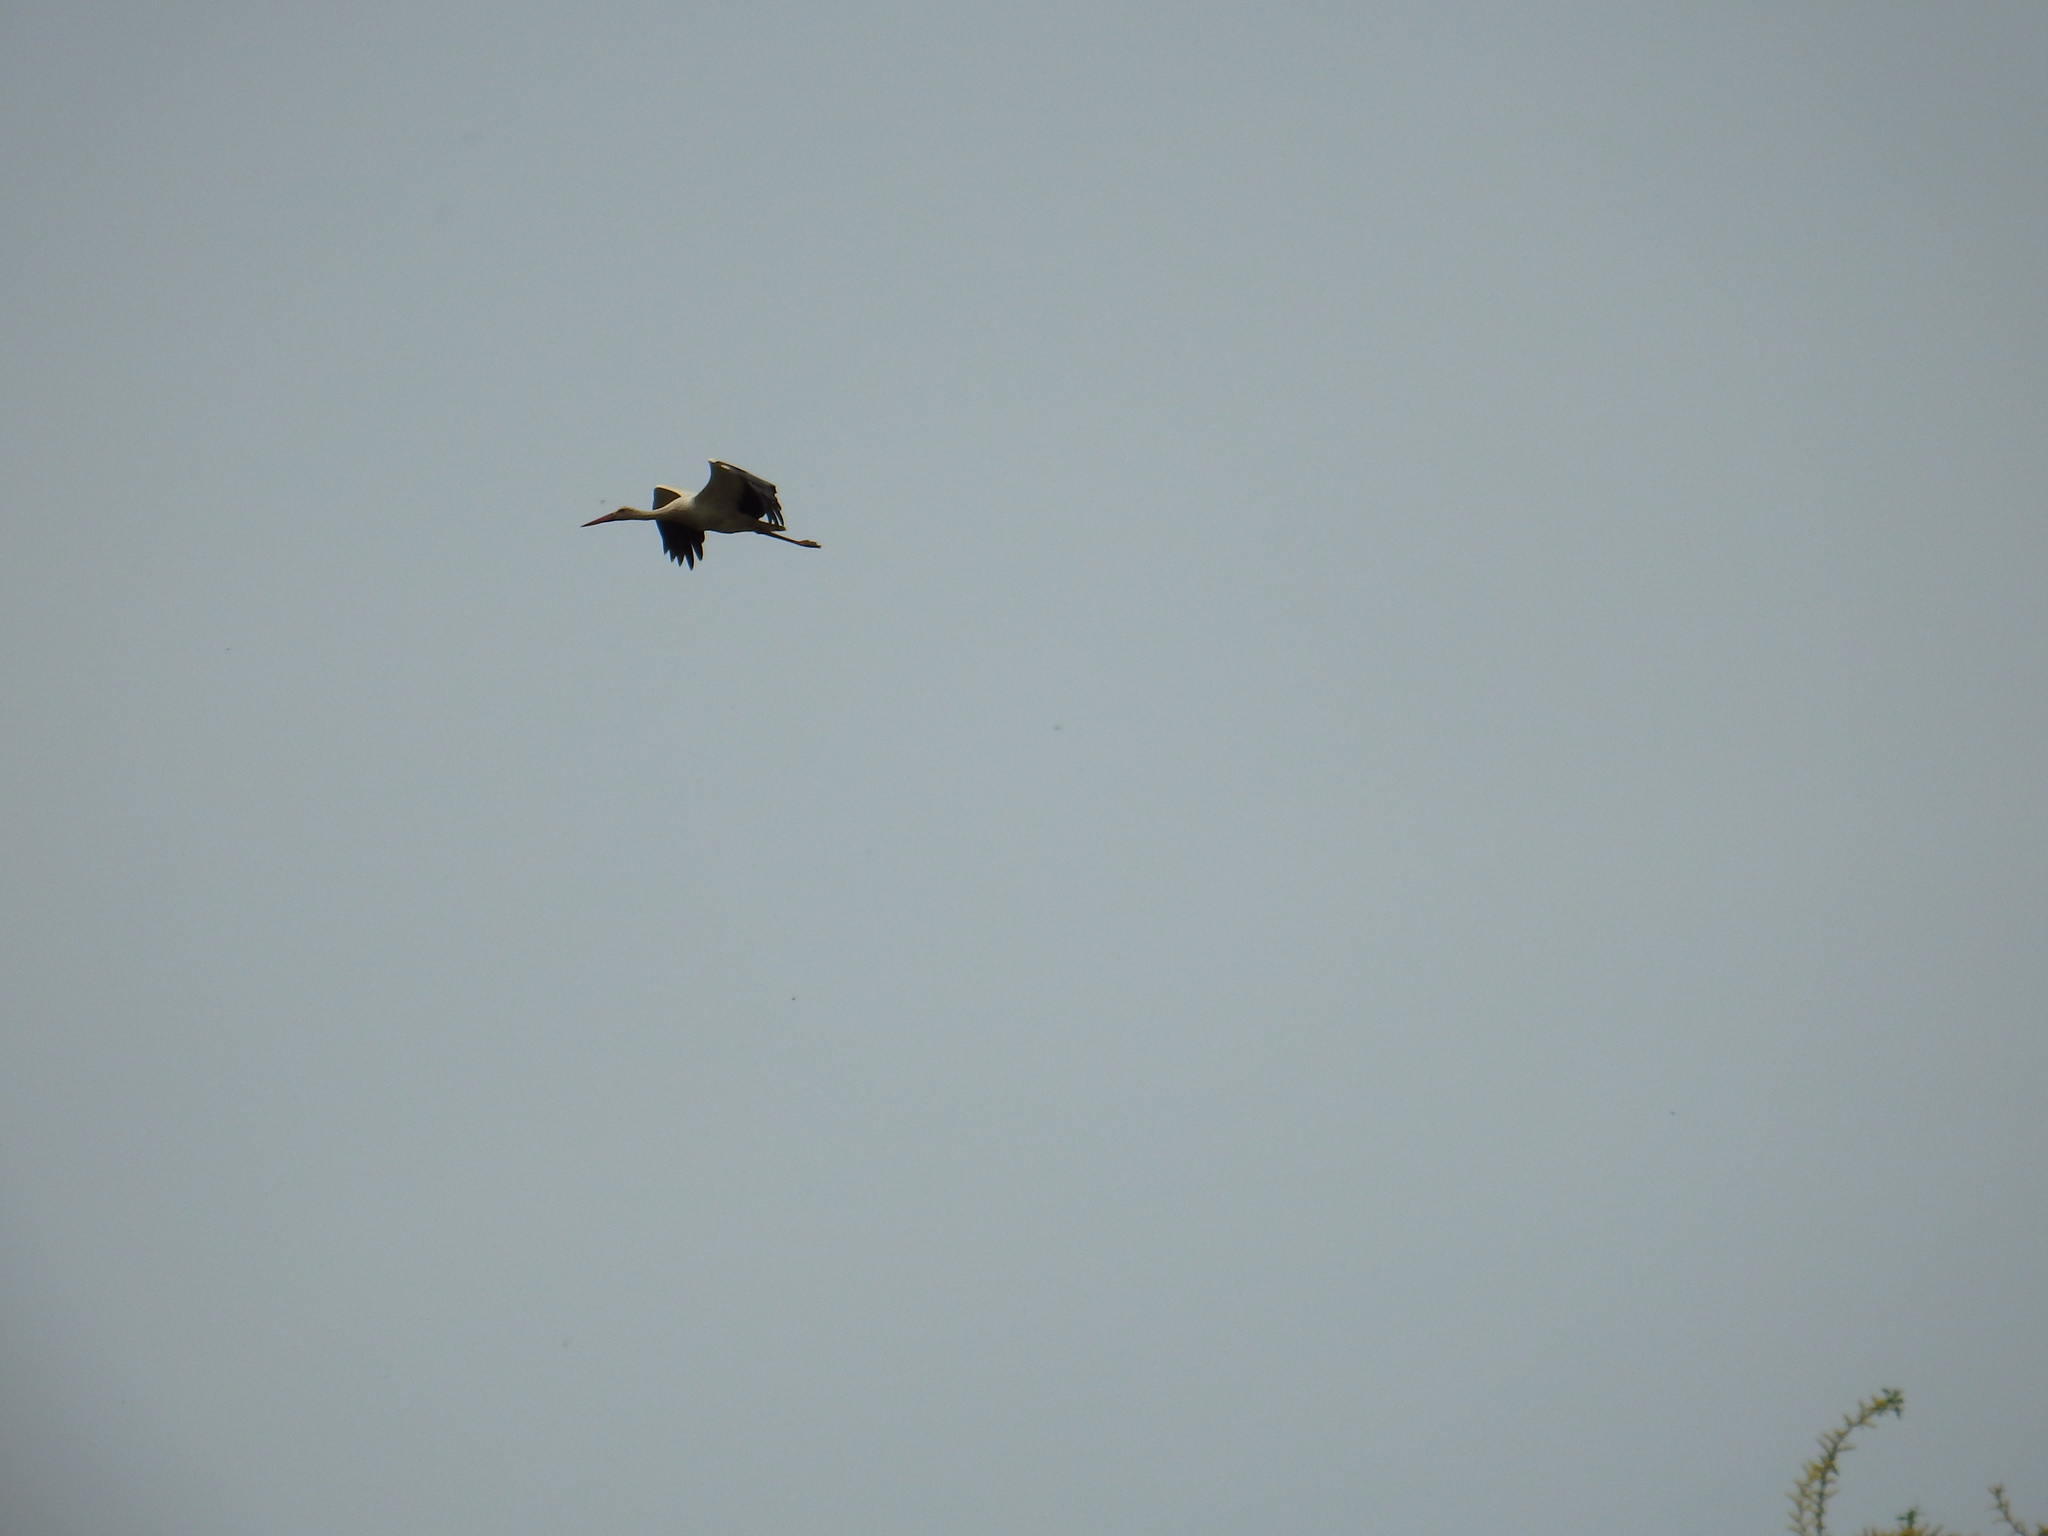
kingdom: Animalia
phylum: Chordata
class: Aves
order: Ciconiiformes
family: Ciconiidae
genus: Ciconia
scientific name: Ciconia ciconia
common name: White stork
